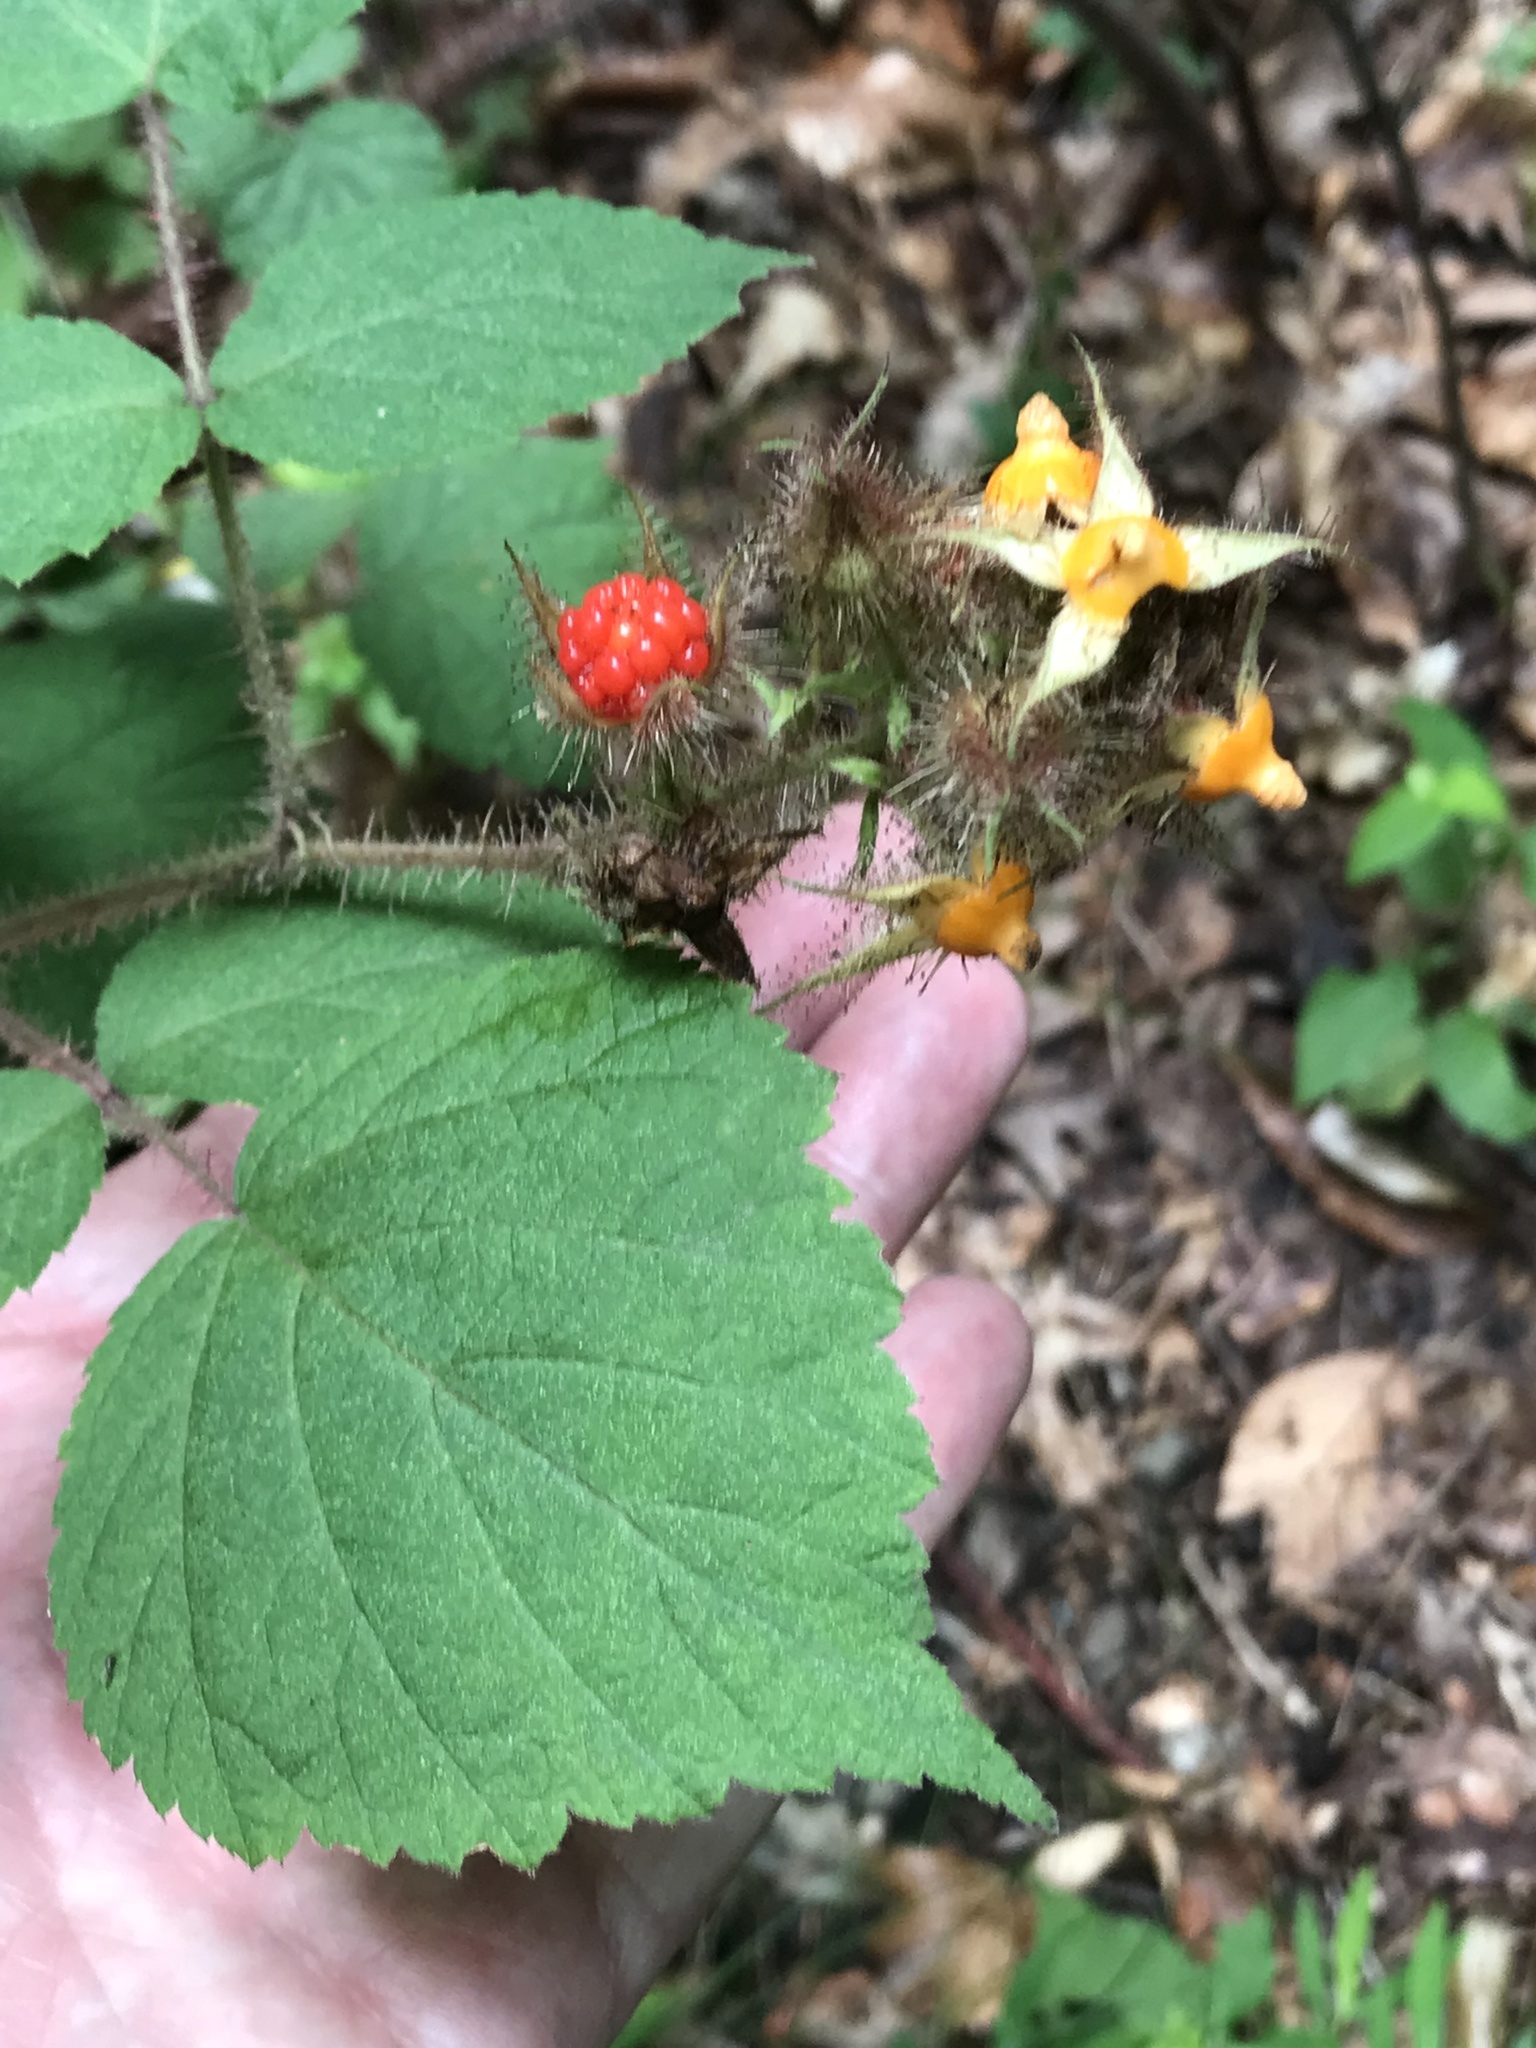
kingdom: Plantae
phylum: Tracheophyta
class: Magnoliopsida
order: Rosales
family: Rosaceae
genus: Rubus
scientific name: Rubus phoenicolasius
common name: Japanese wineberry
